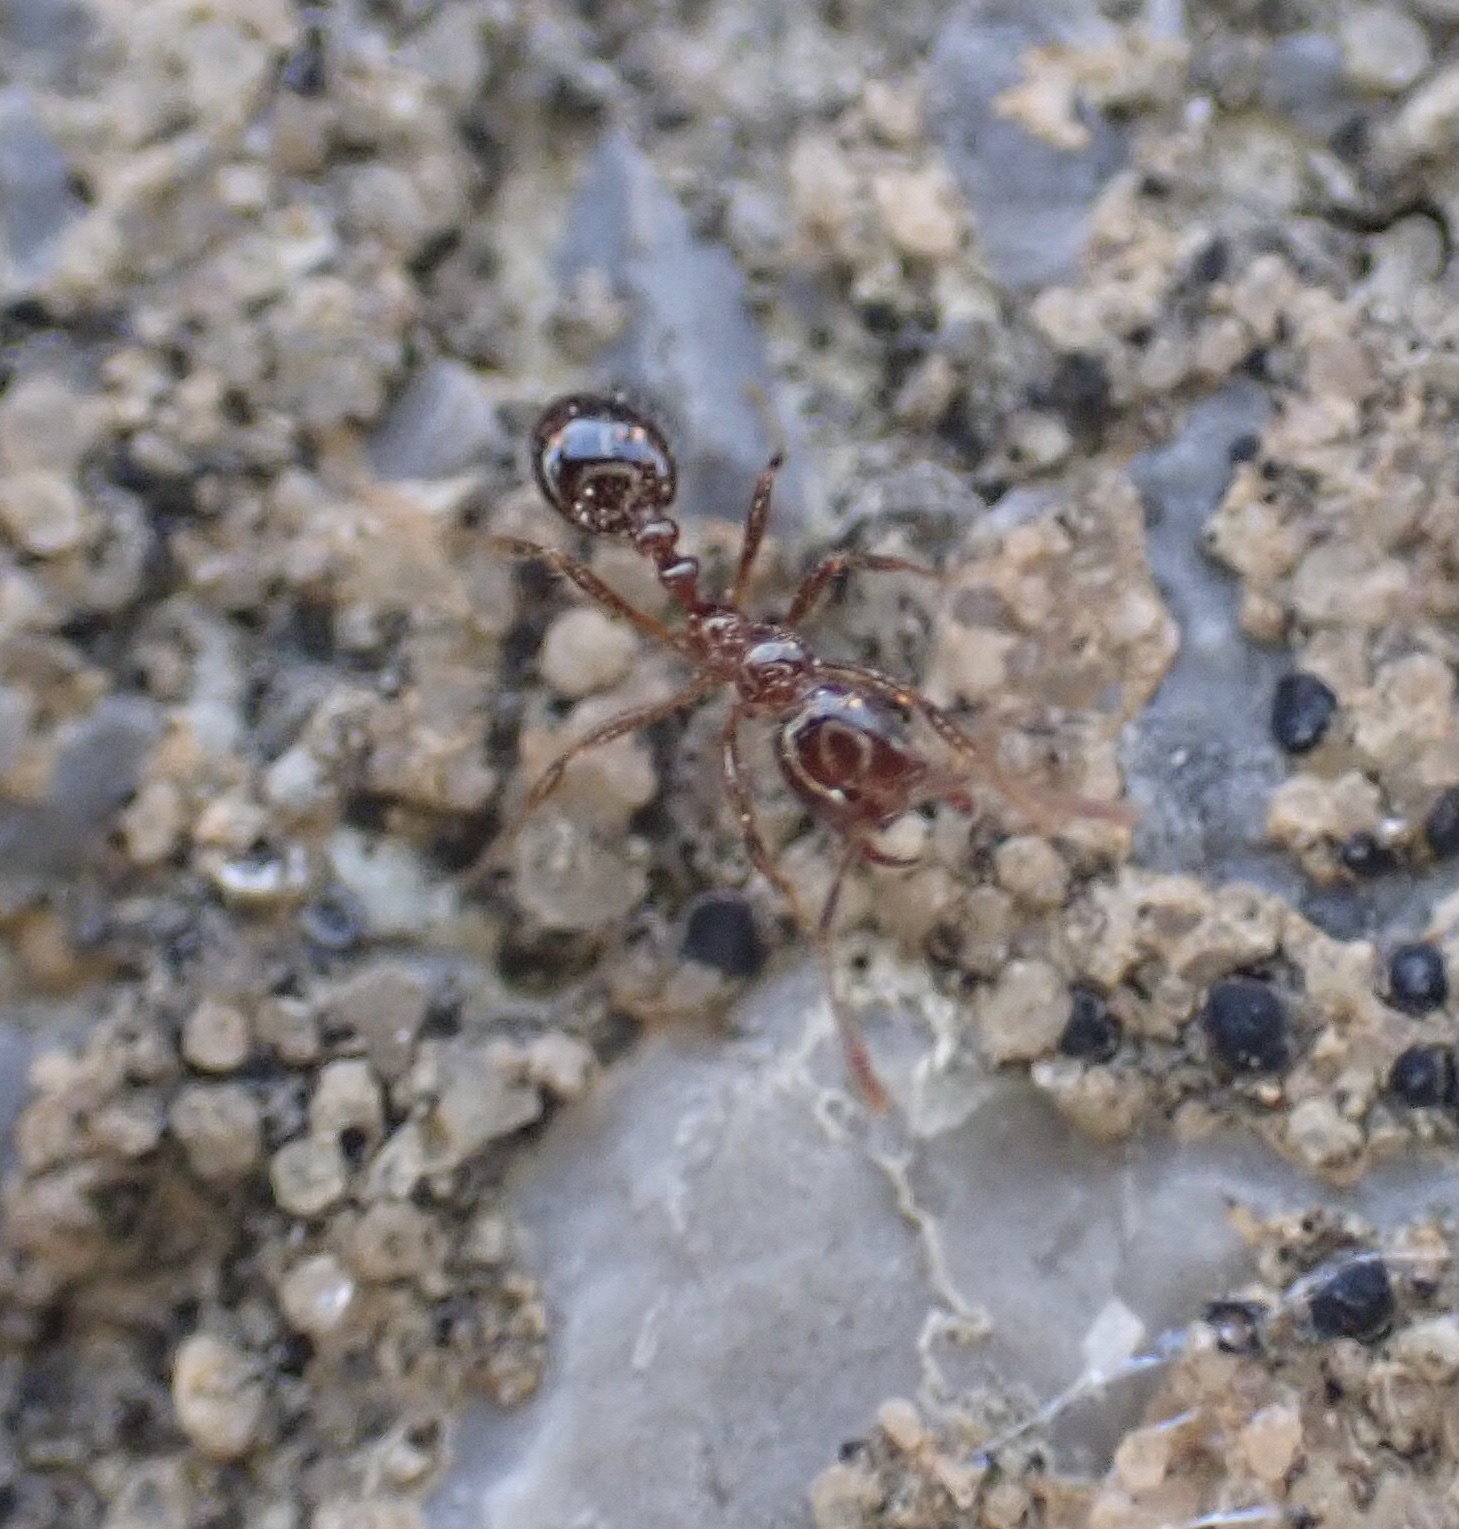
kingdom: Animalia
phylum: Arthropoda
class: Insecta
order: Hymenoptera
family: Formicidae
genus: Solenopsis
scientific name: Solenopsis
